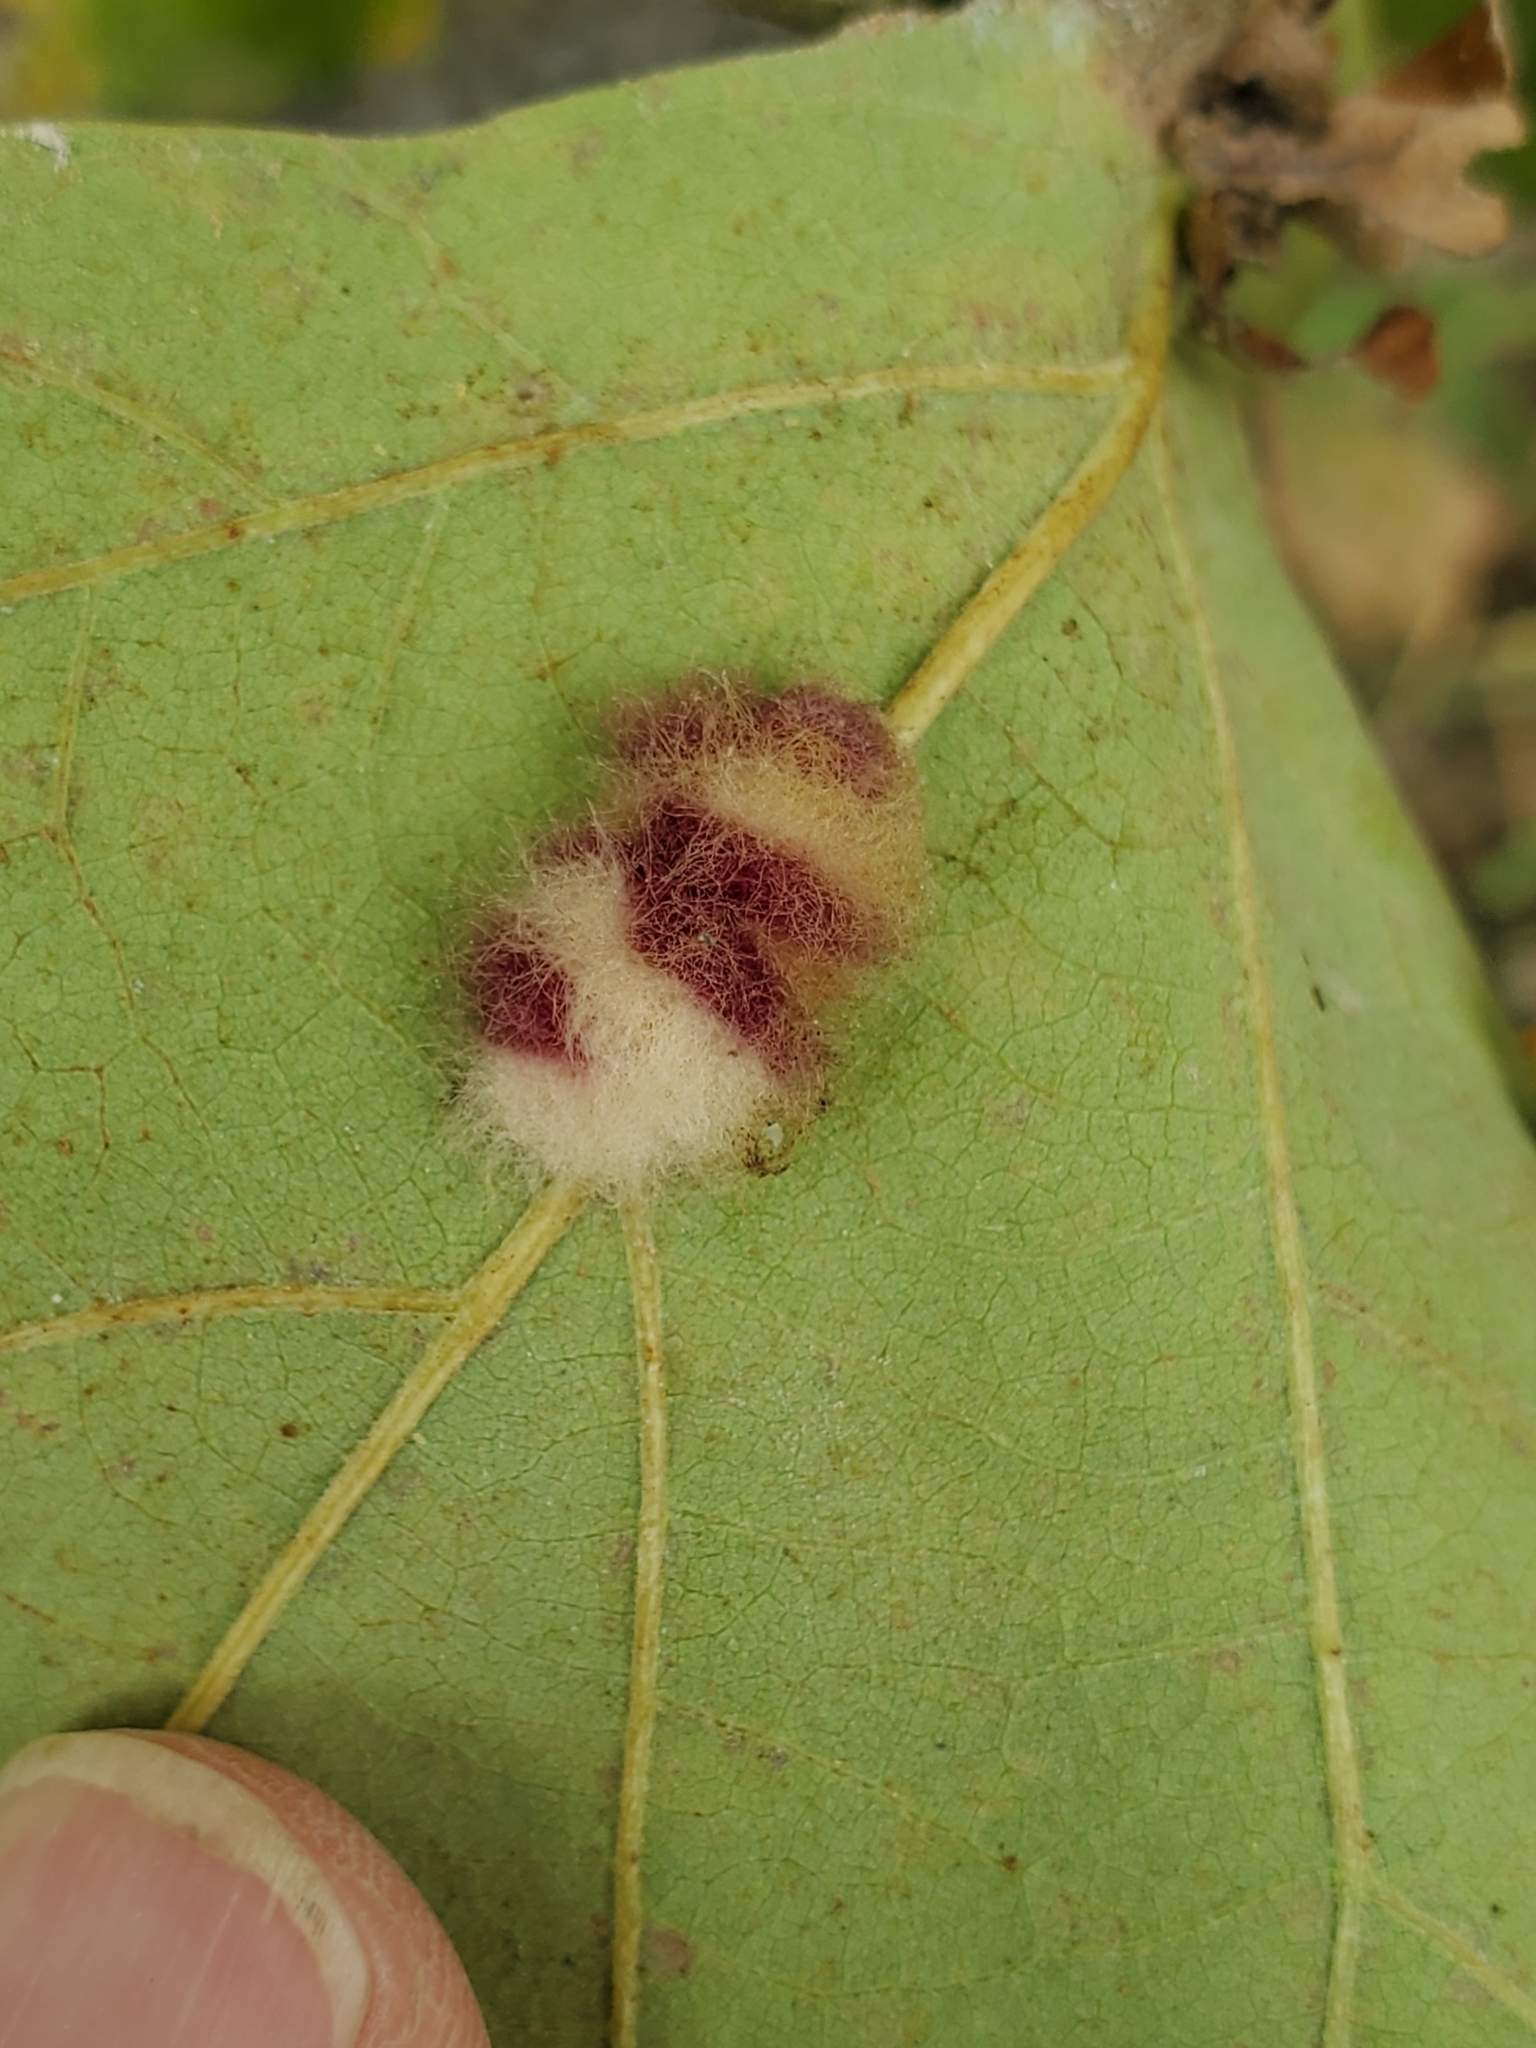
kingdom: Animalia
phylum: Arthropoda
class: Insecta
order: Hymenoptera
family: Cynipidae
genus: Andricus
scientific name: Andricus Druon ignotum
